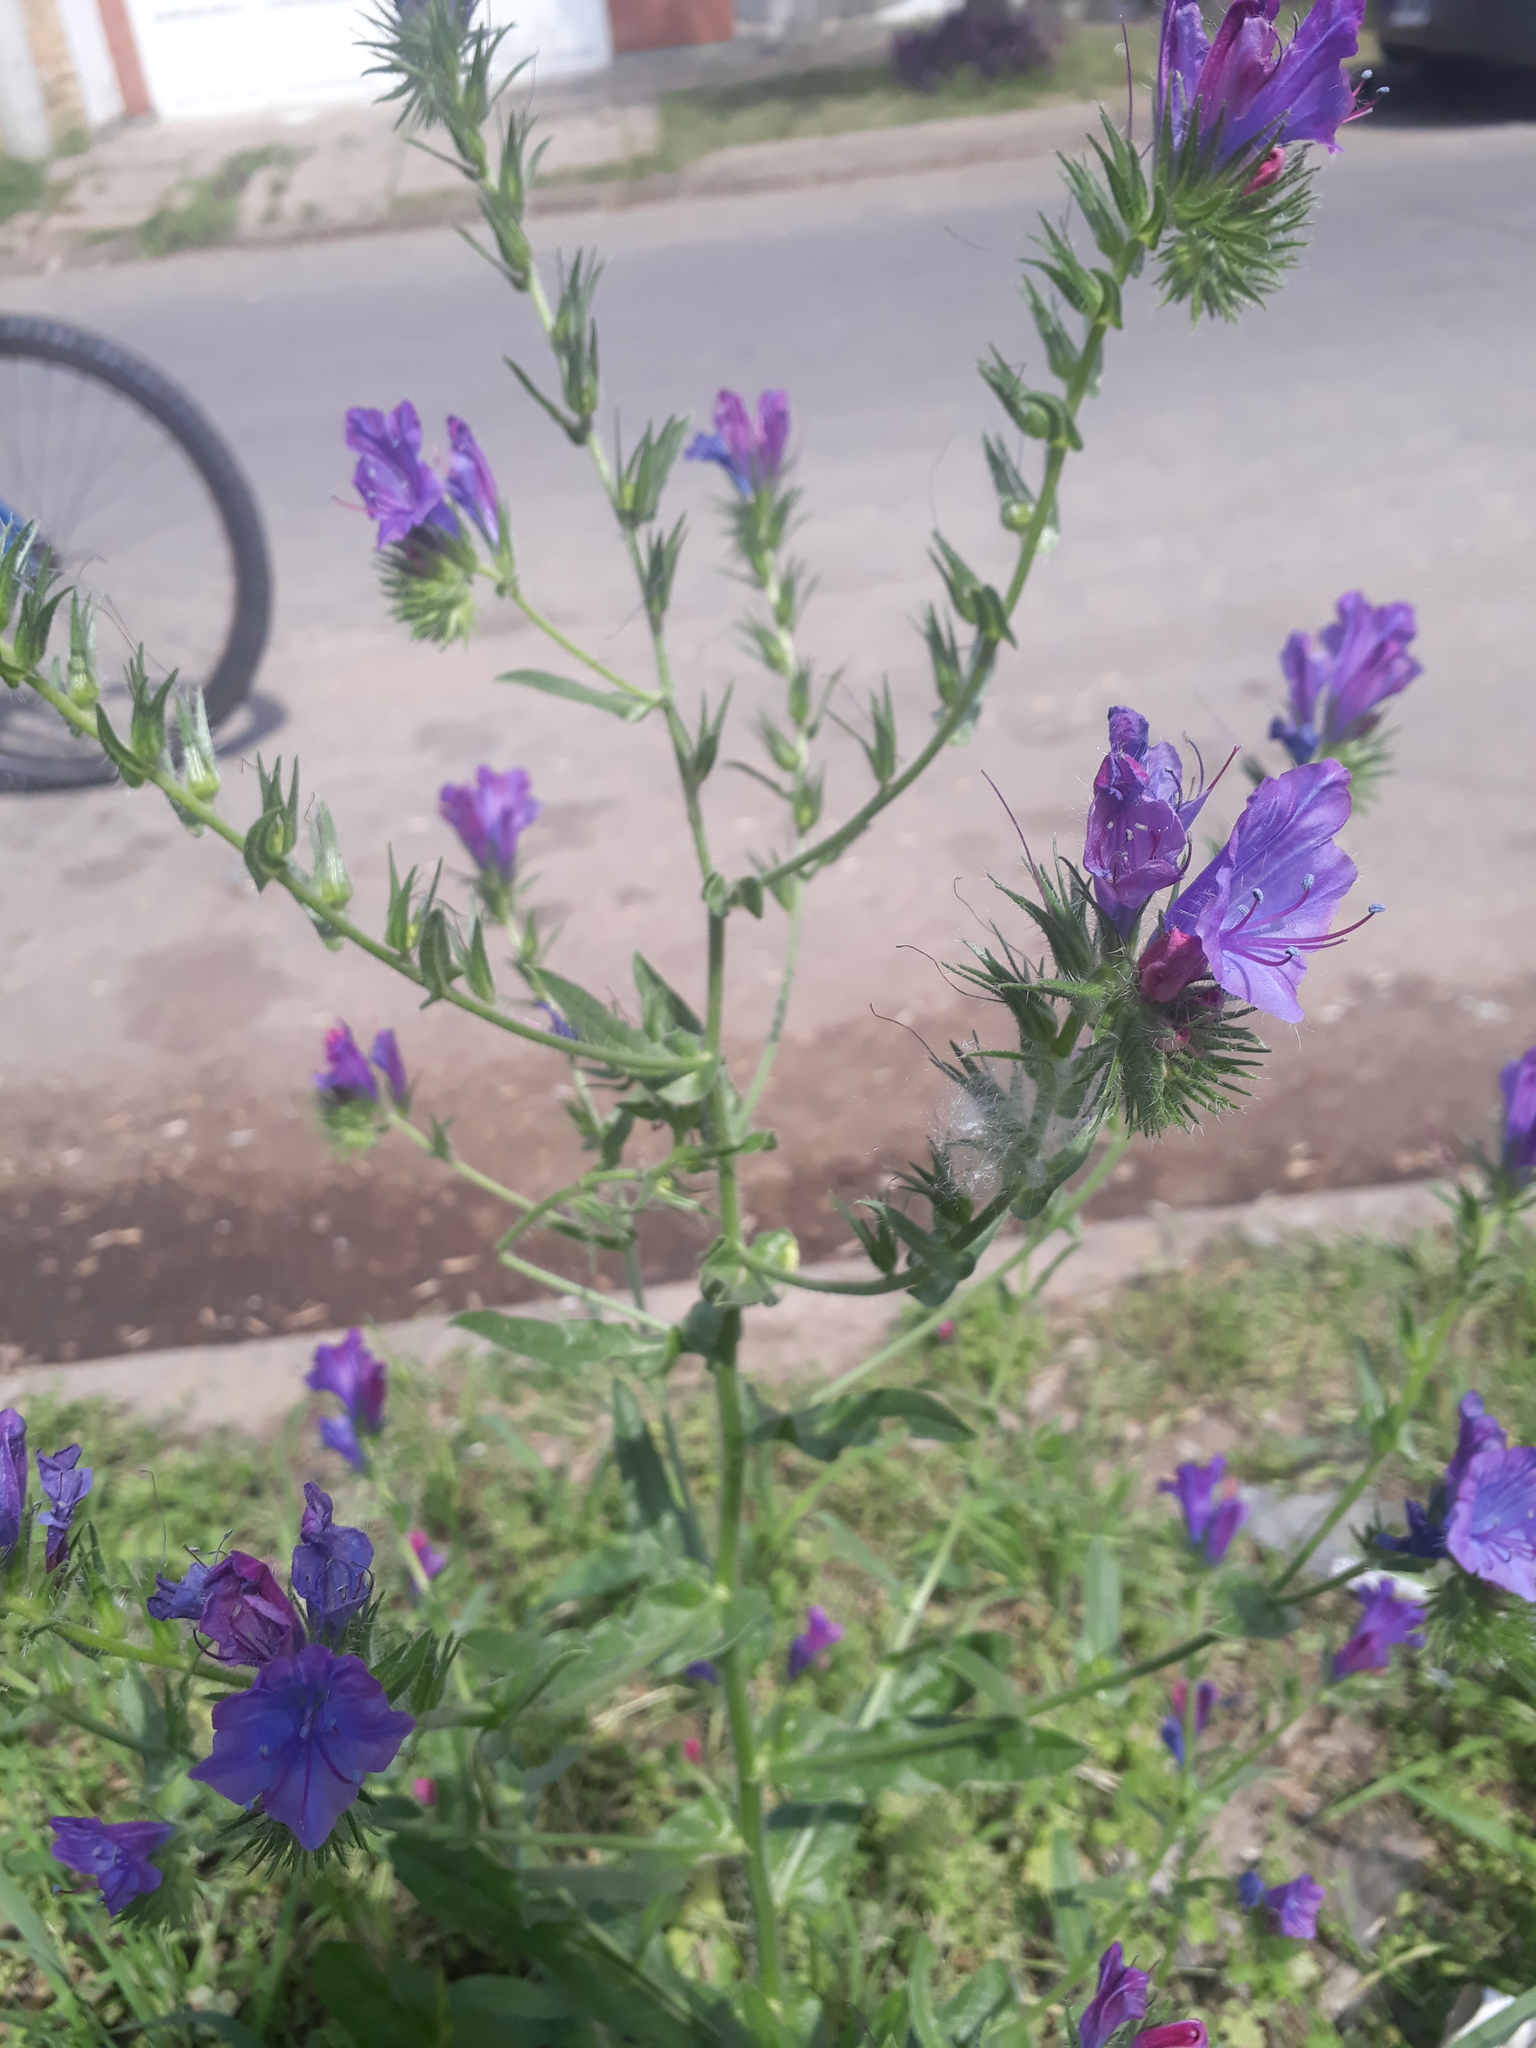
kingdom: Plantae
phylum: Tracheophyta
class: Magnoliopsida
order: Boraginales
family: Boraginaceae
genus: Echium
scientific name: Echium plantagineum
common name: Purple viper's-bugloss
